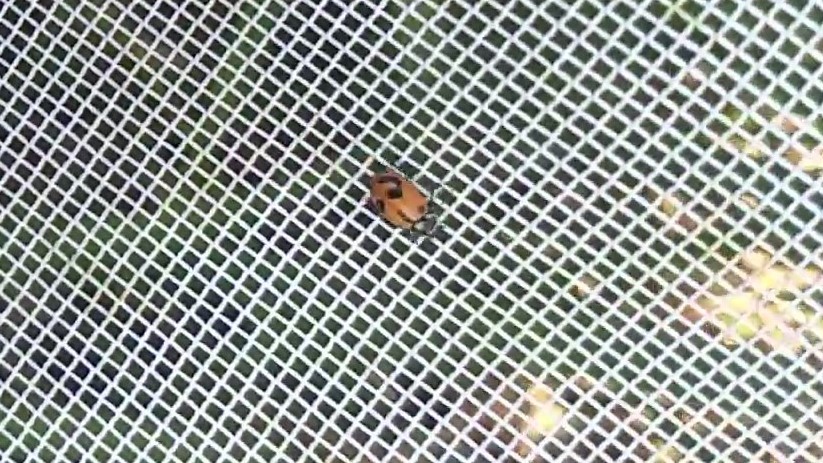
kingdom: Animalia
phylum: Arthropoda
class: Insecta
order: Coleoptera
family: Coccinellidae
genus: Hippodamia
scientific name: Hippodamia parenthesis
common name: Parenthesis lady beetle
